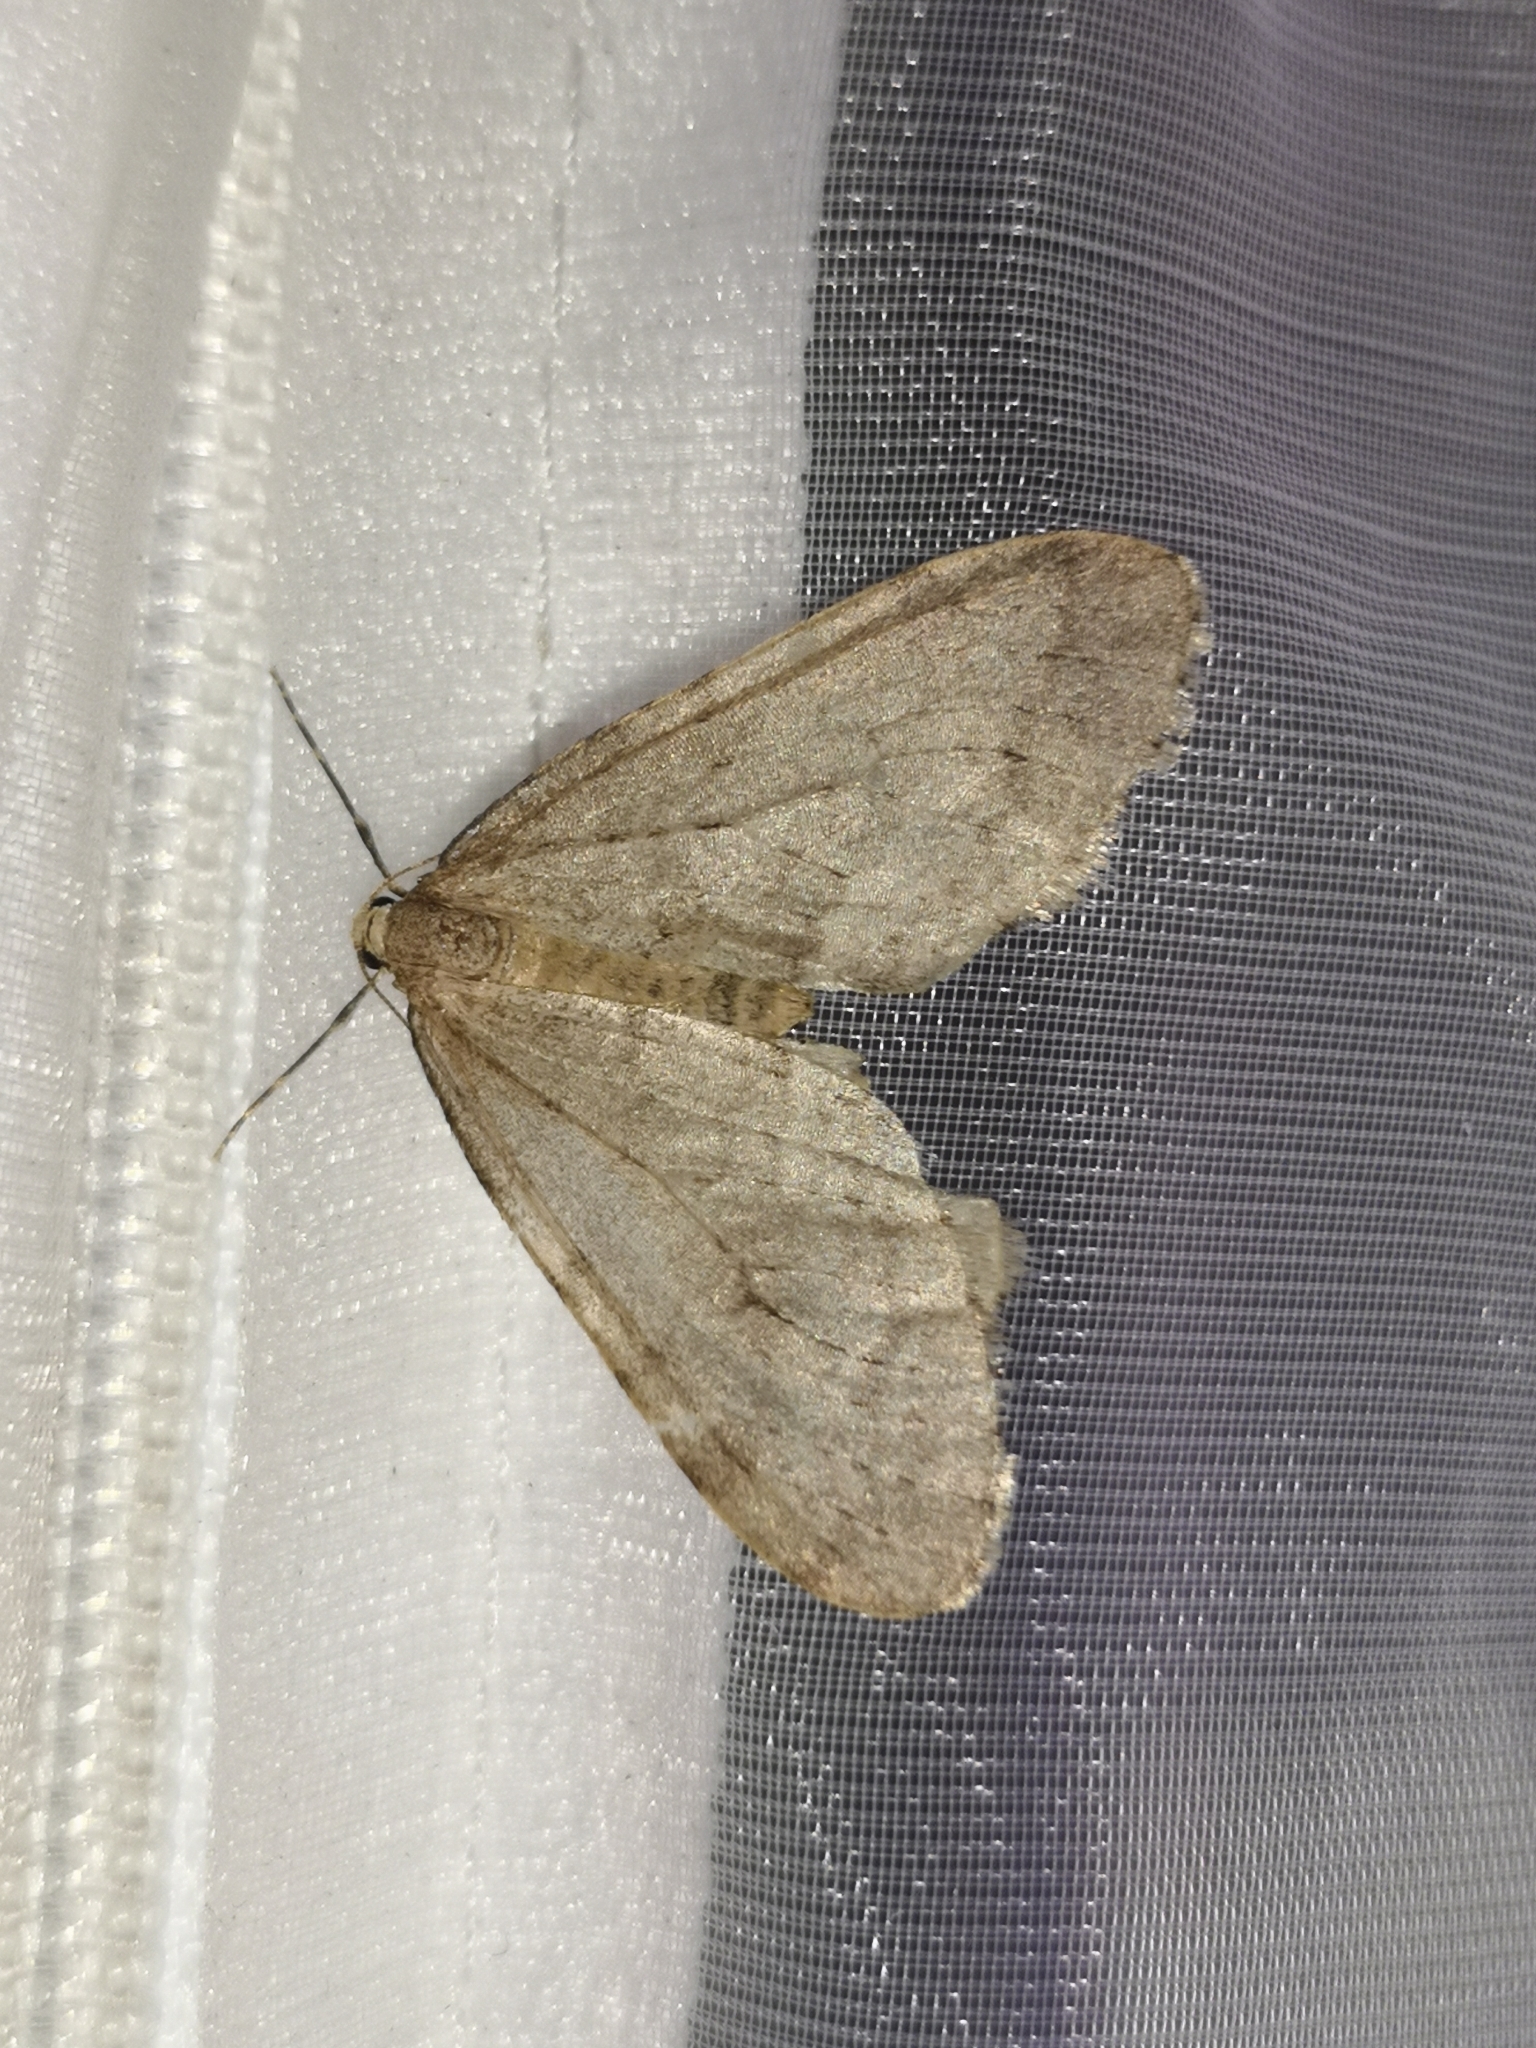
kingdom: Animalia
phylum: Arthropoda
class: Insecta
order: Lepidoptera
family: Geometridae
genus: Operophtera
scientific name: Operophtera fagata
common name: Northern winter moth
